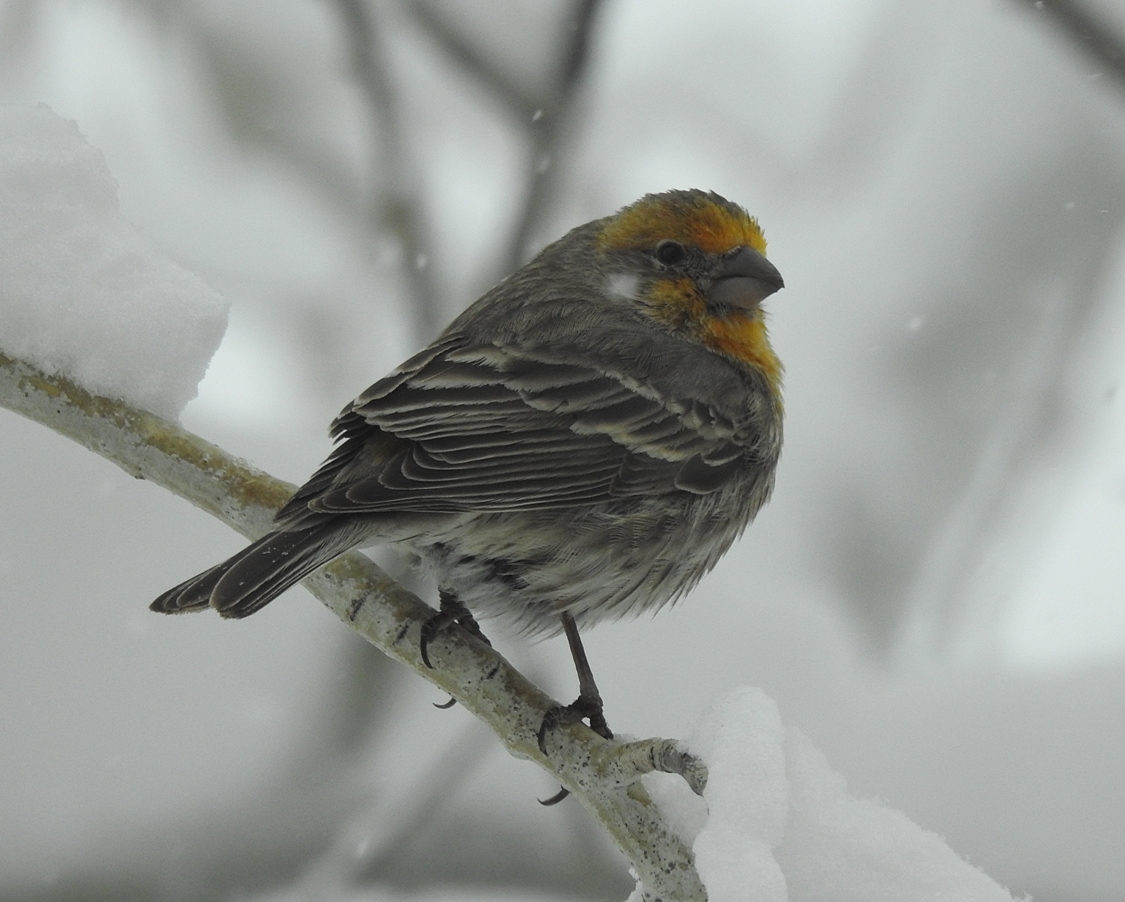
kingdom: Animalia
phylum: Chordata
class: Aves
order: Passeriformes
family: Fringillidae
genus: Haemorhous
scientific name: Haemorhous mexicanus
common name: House finch
